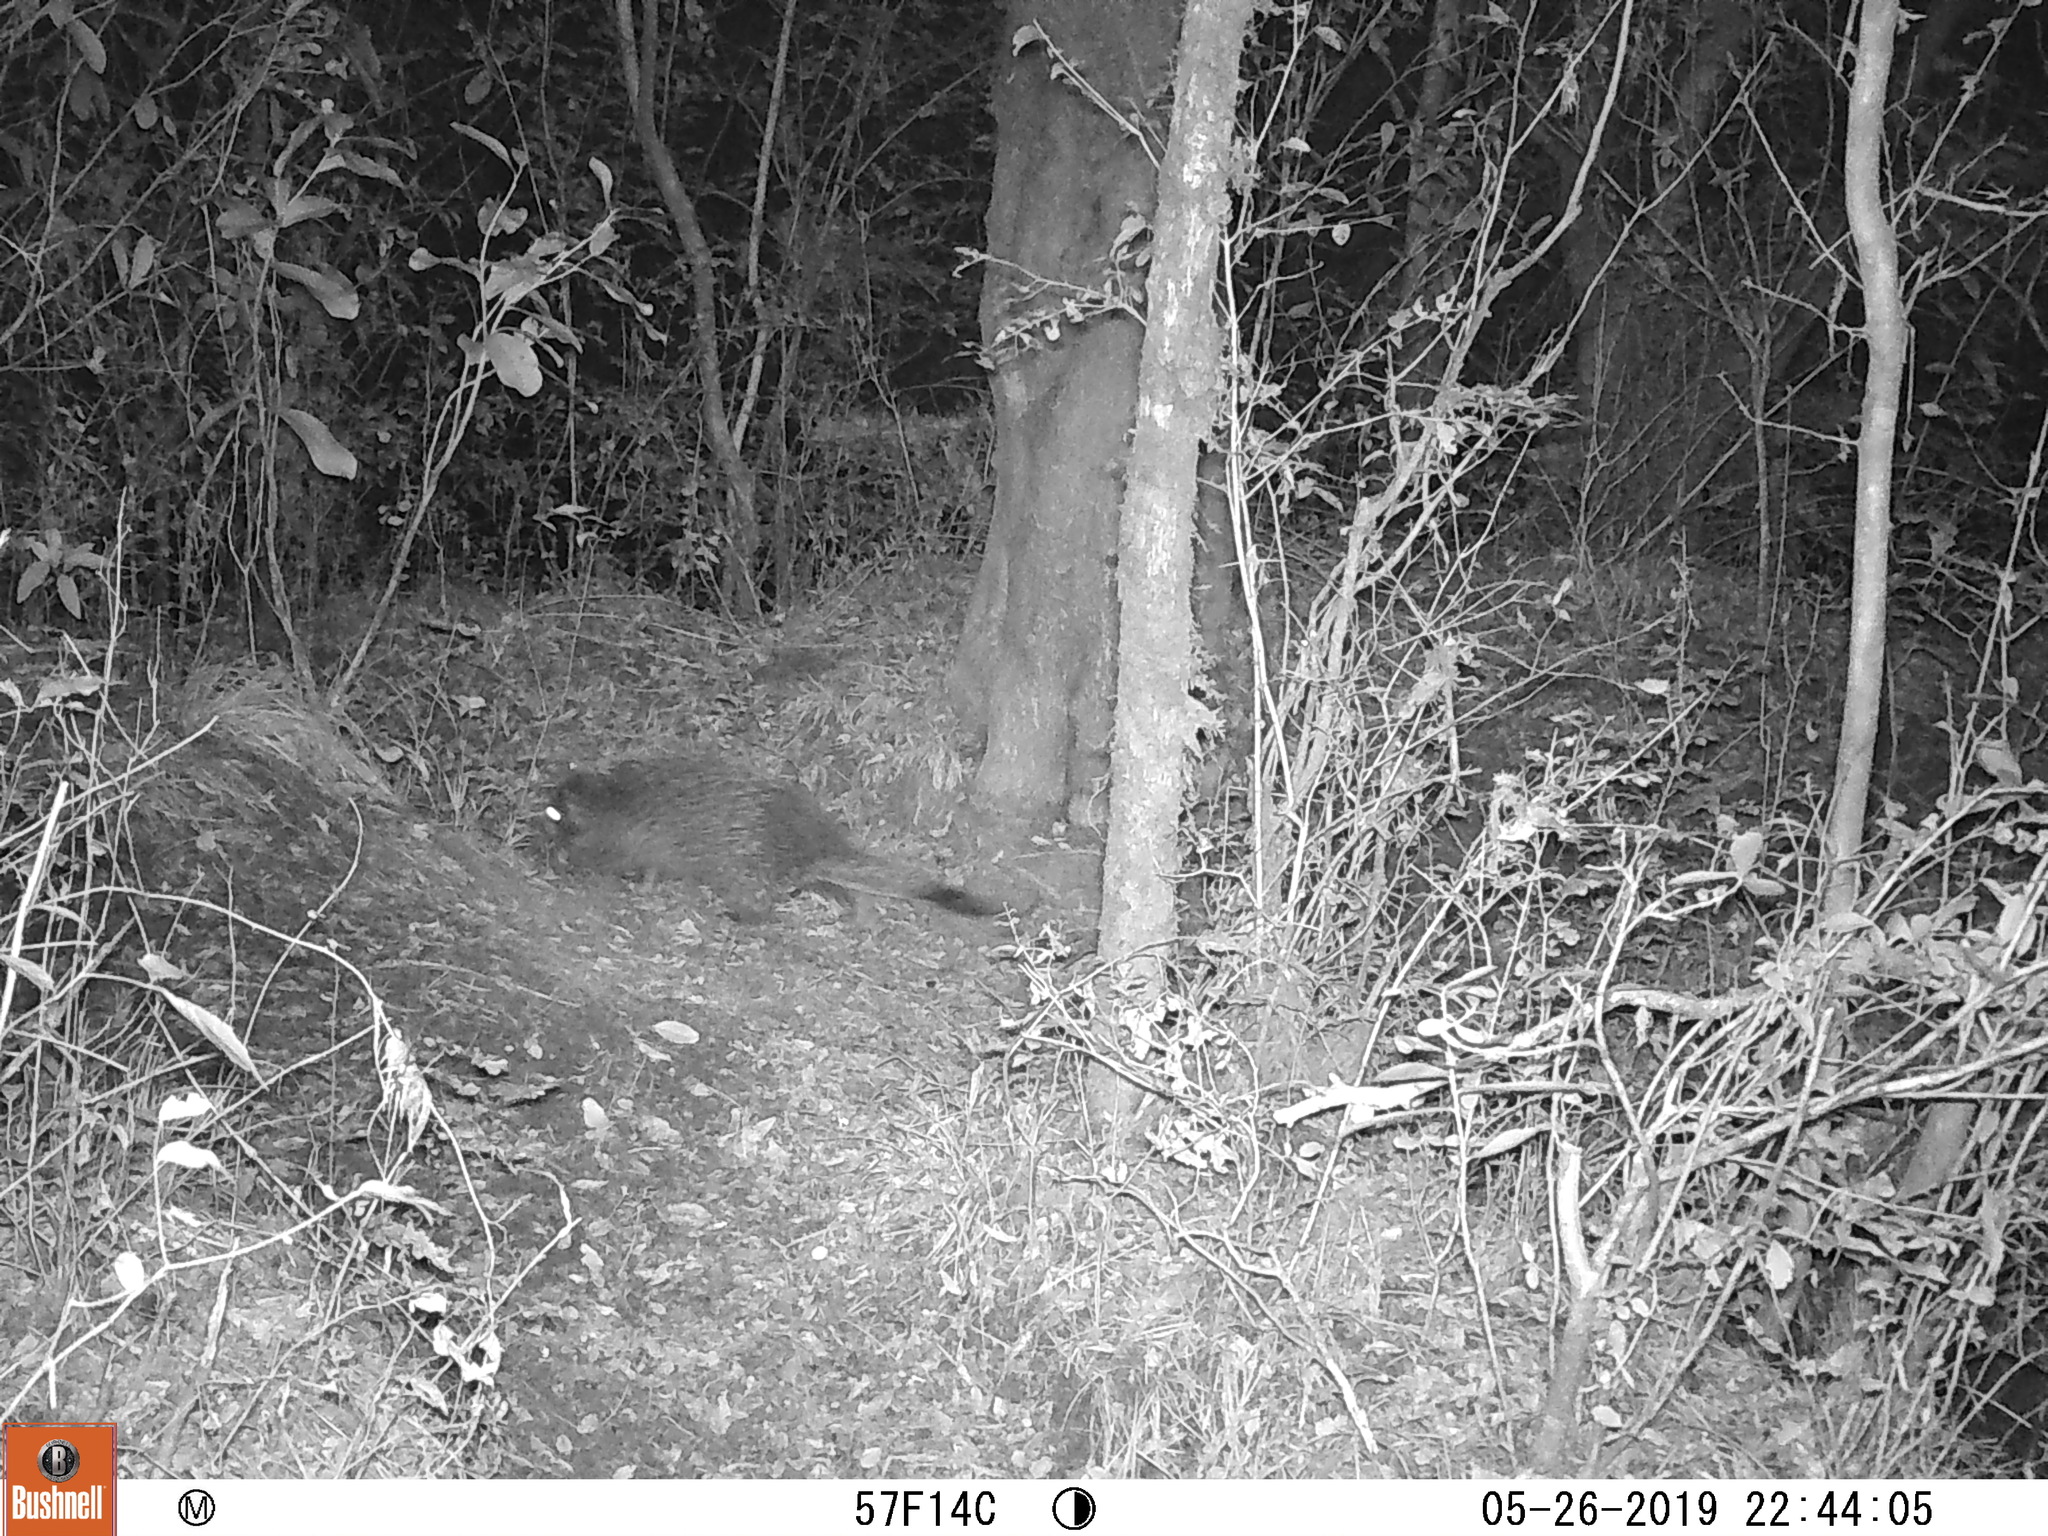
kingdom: Animalia
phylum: Chordata
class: Mammalia
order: Rodentia
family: Erethizontidae
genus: Sphiggurus
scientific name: Sphiggurus spinosus
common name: Paraguaian hairy dwarf porcupine
